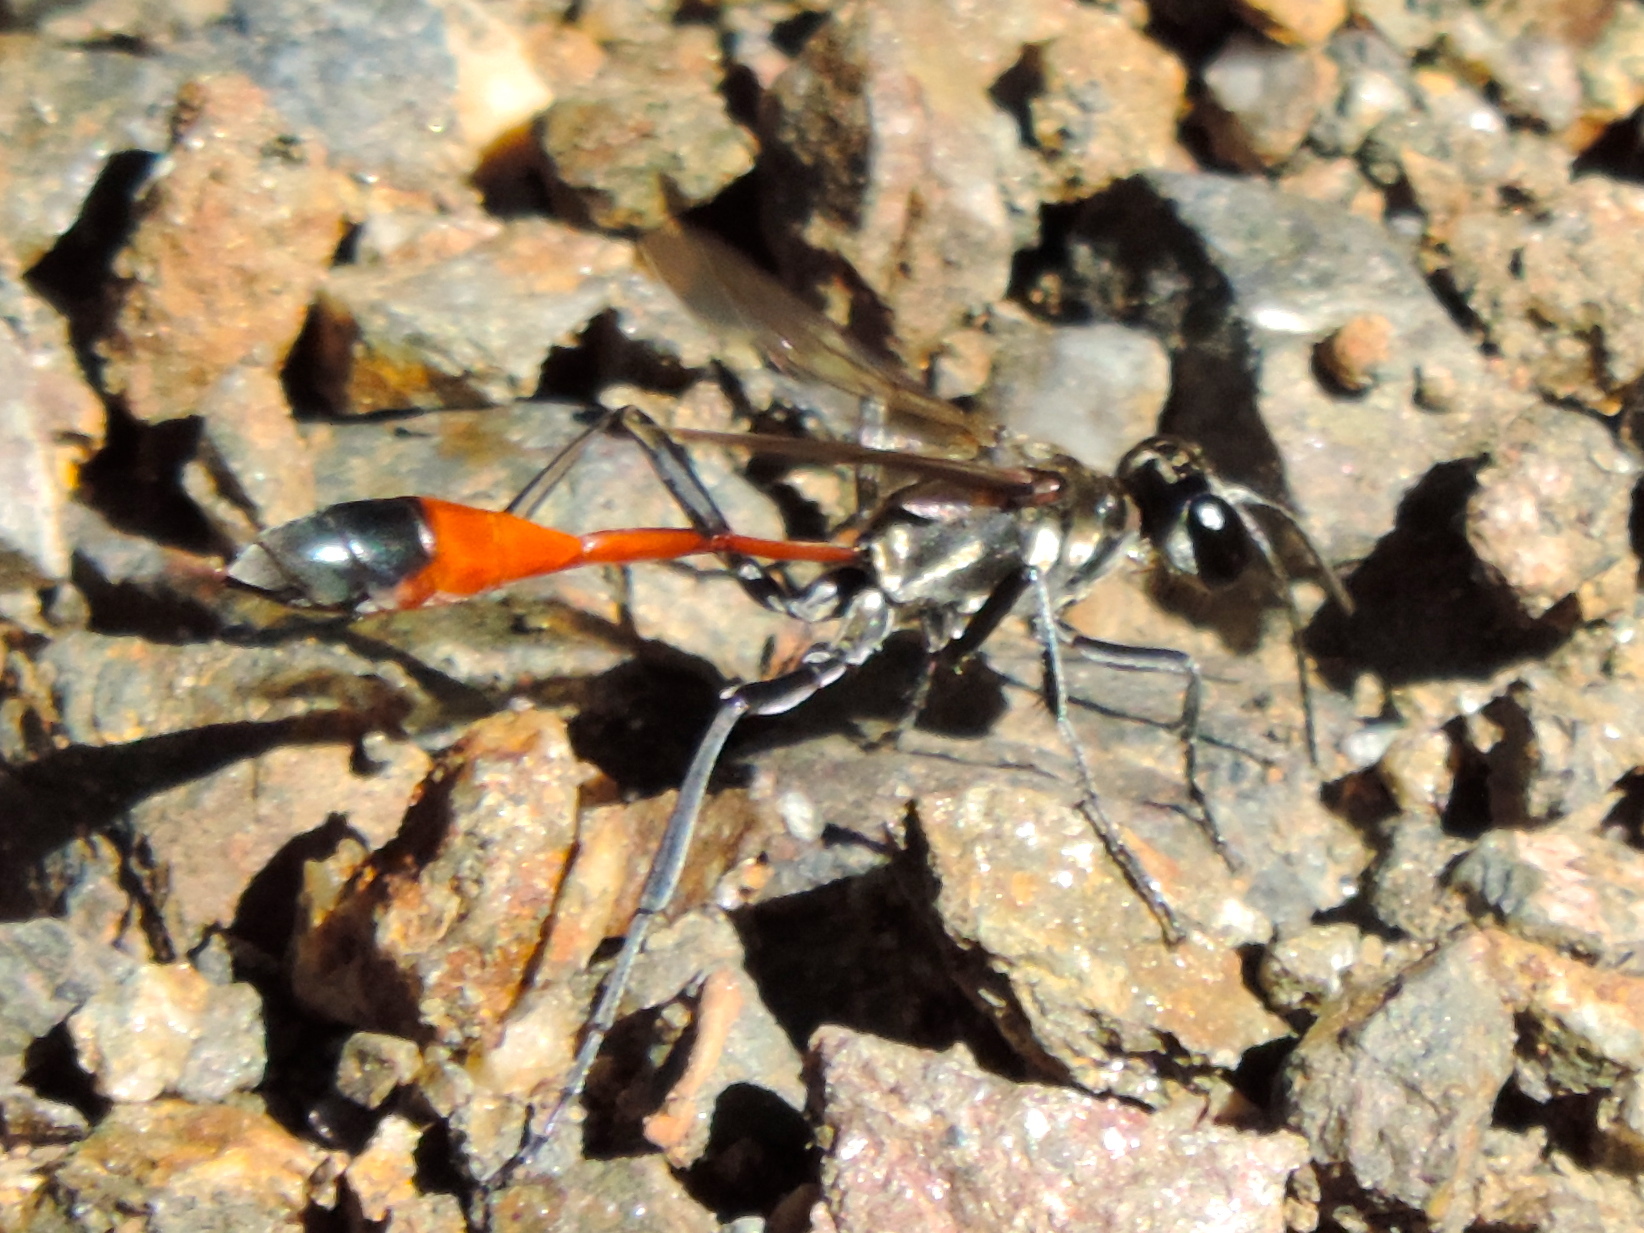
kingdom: Animalia
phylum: Arthropoda
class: Insecta
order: Hymenoptera
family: Sphecidae
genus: Ammophila
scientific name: Ammophila
